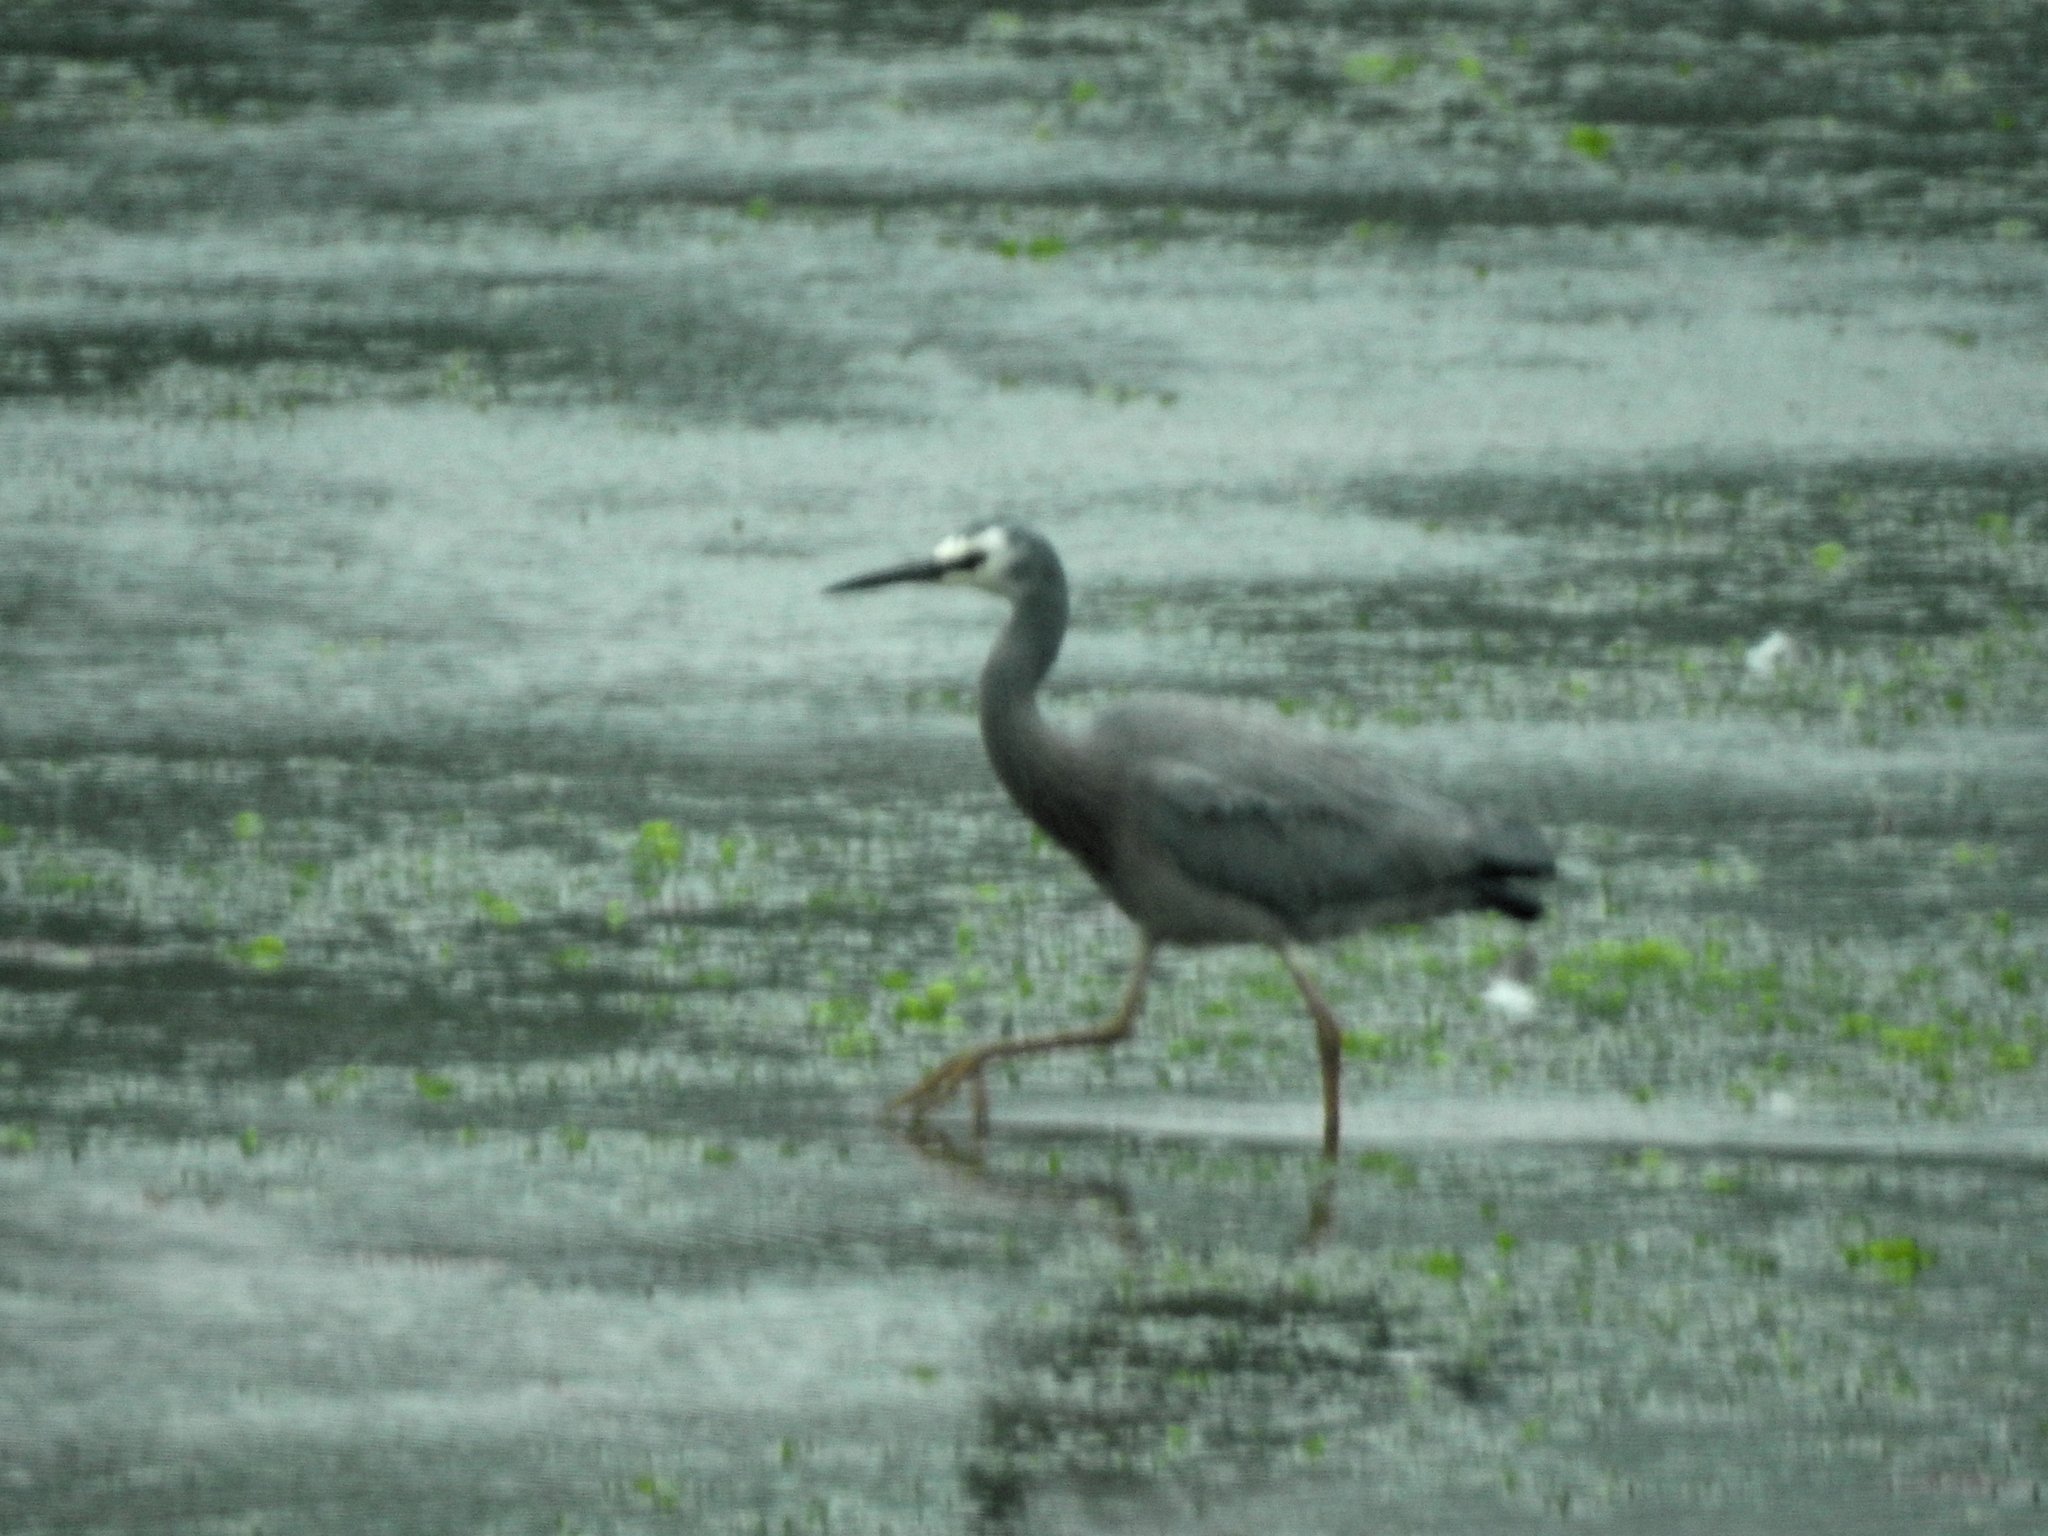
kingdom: Animalia
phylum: Chordata
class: Aves
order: Pelecaniformes
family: Ardeidae
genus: Egretta
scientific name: Egretta novaehollandiae
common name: White-faced heron
